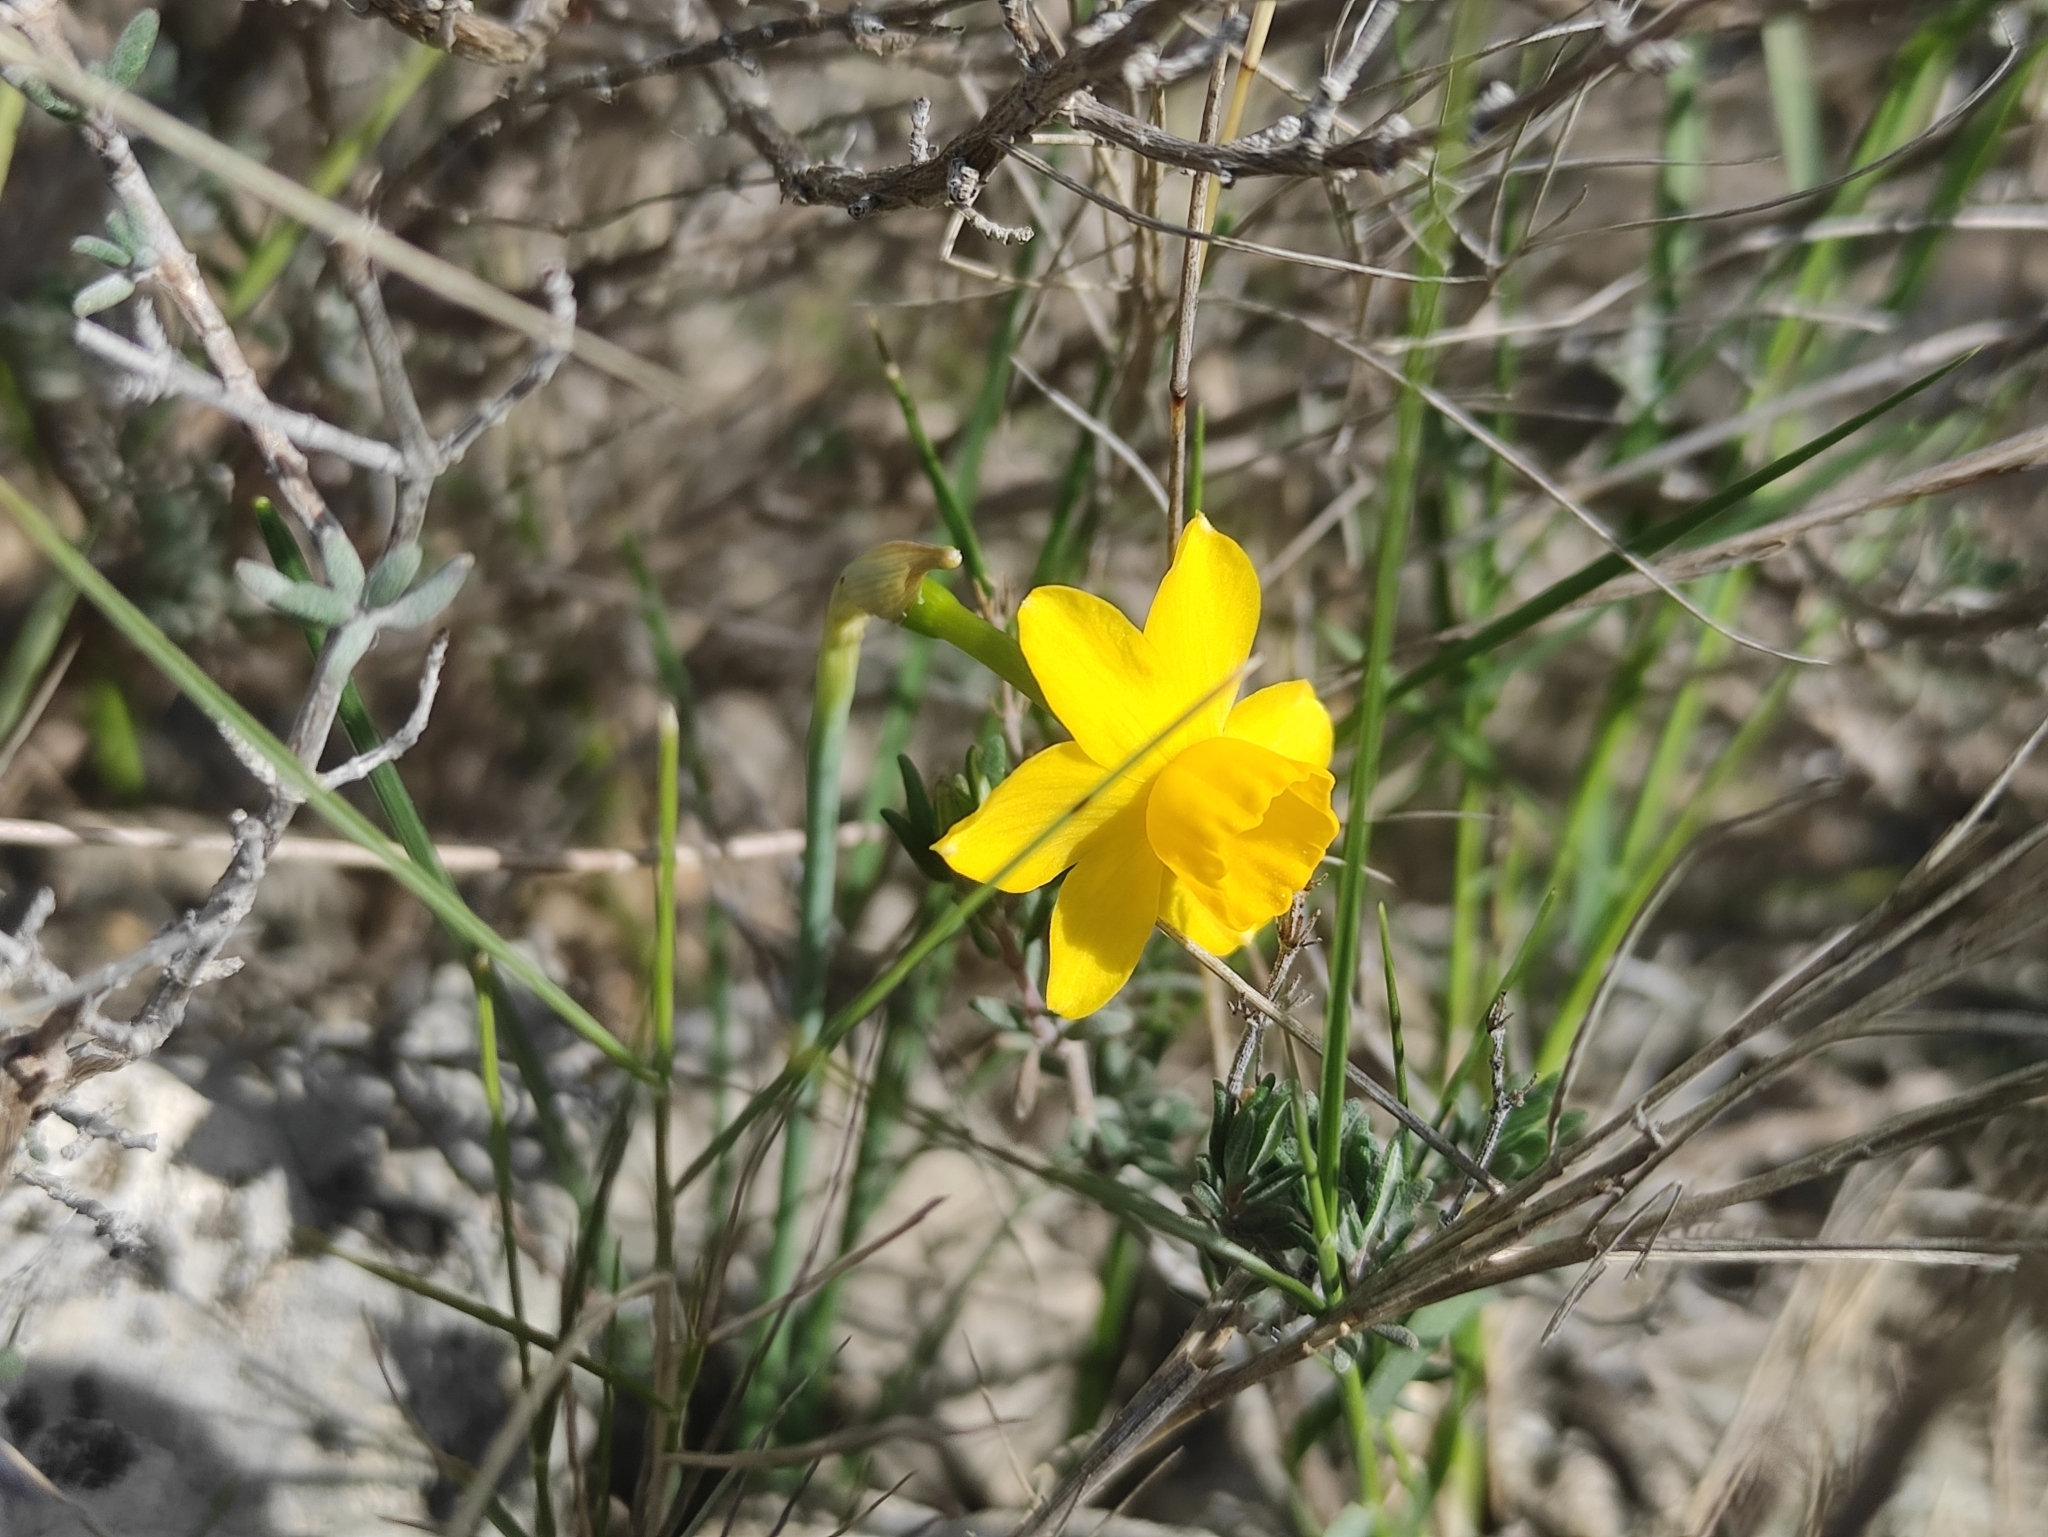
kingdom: Plantae
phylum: Tracheophyta
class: Liliopsida
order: Asparagales
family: Amaryllidaceae
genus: Narcissus
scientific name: Narcissus assoanus
